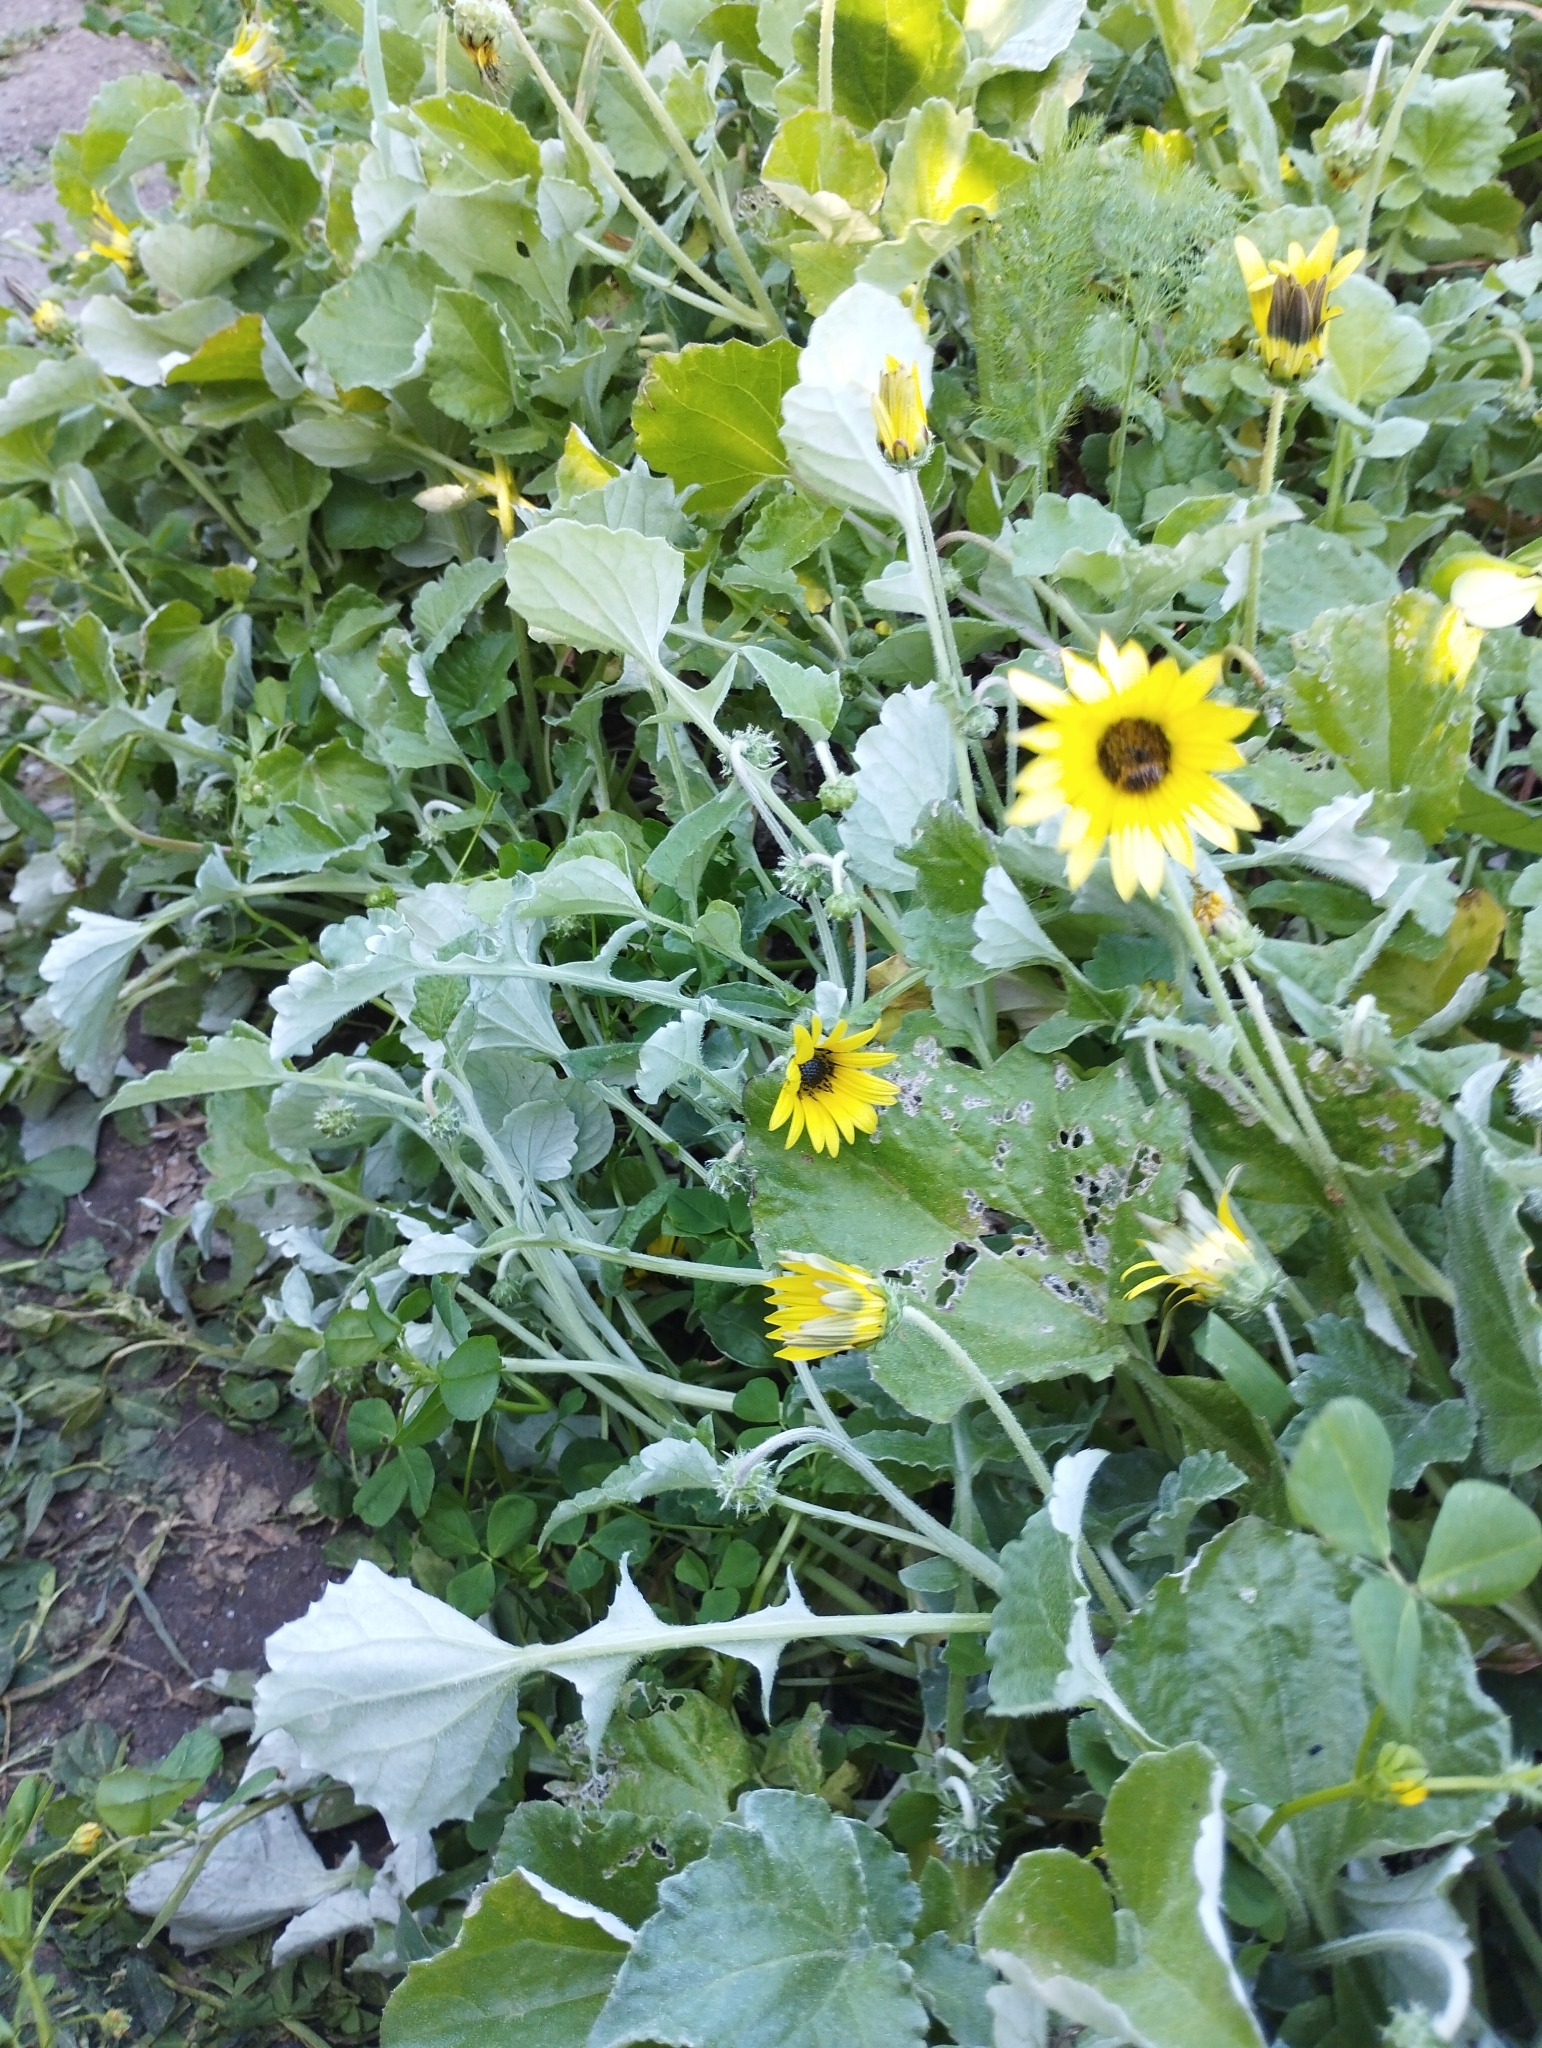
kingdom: Plantae
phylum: Tracheophyta
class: Magnoliopsida
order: Asterales
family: Asteraceae
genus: Arctotheca
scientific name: Arctotheca calendula
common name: Capeweed
